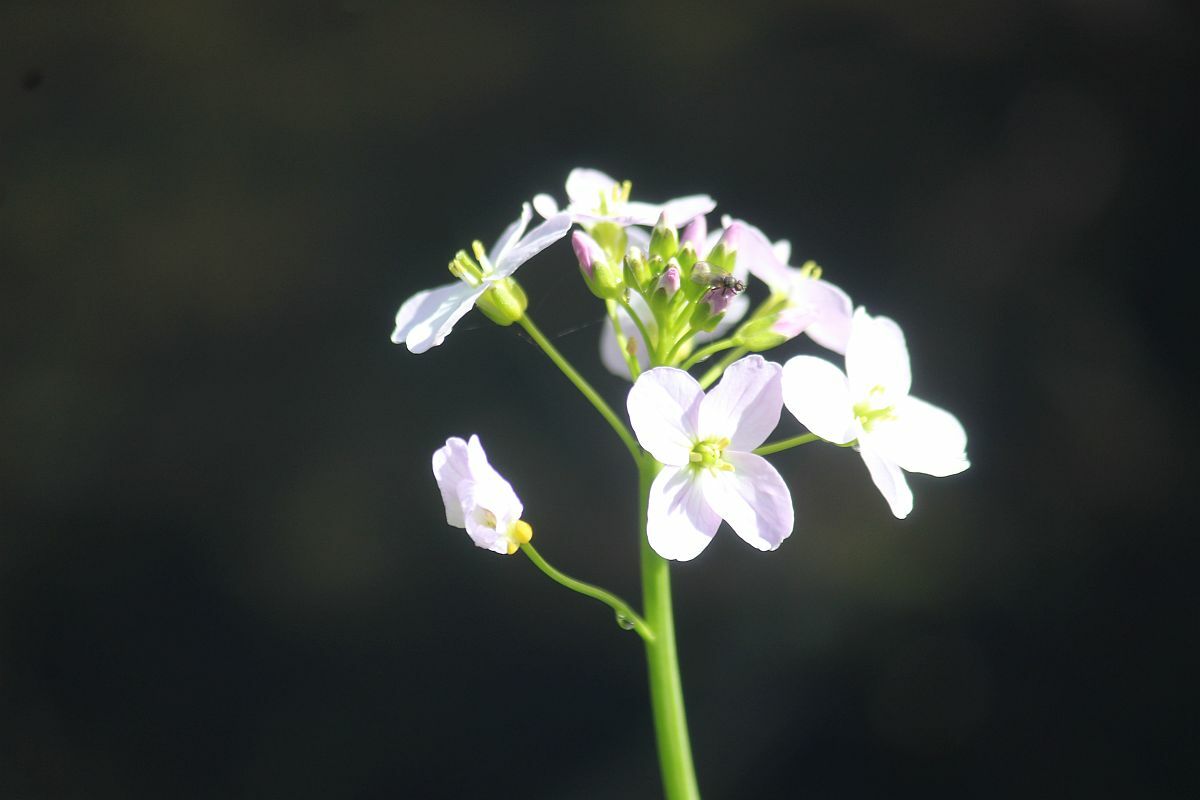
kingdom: Plantae
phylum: Tracheophyta
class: Magnoliopsida
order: Brassicales
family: Brassicaceae
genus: Cardamine
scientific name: Cardamine pratensis
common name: Cuckoo flower
